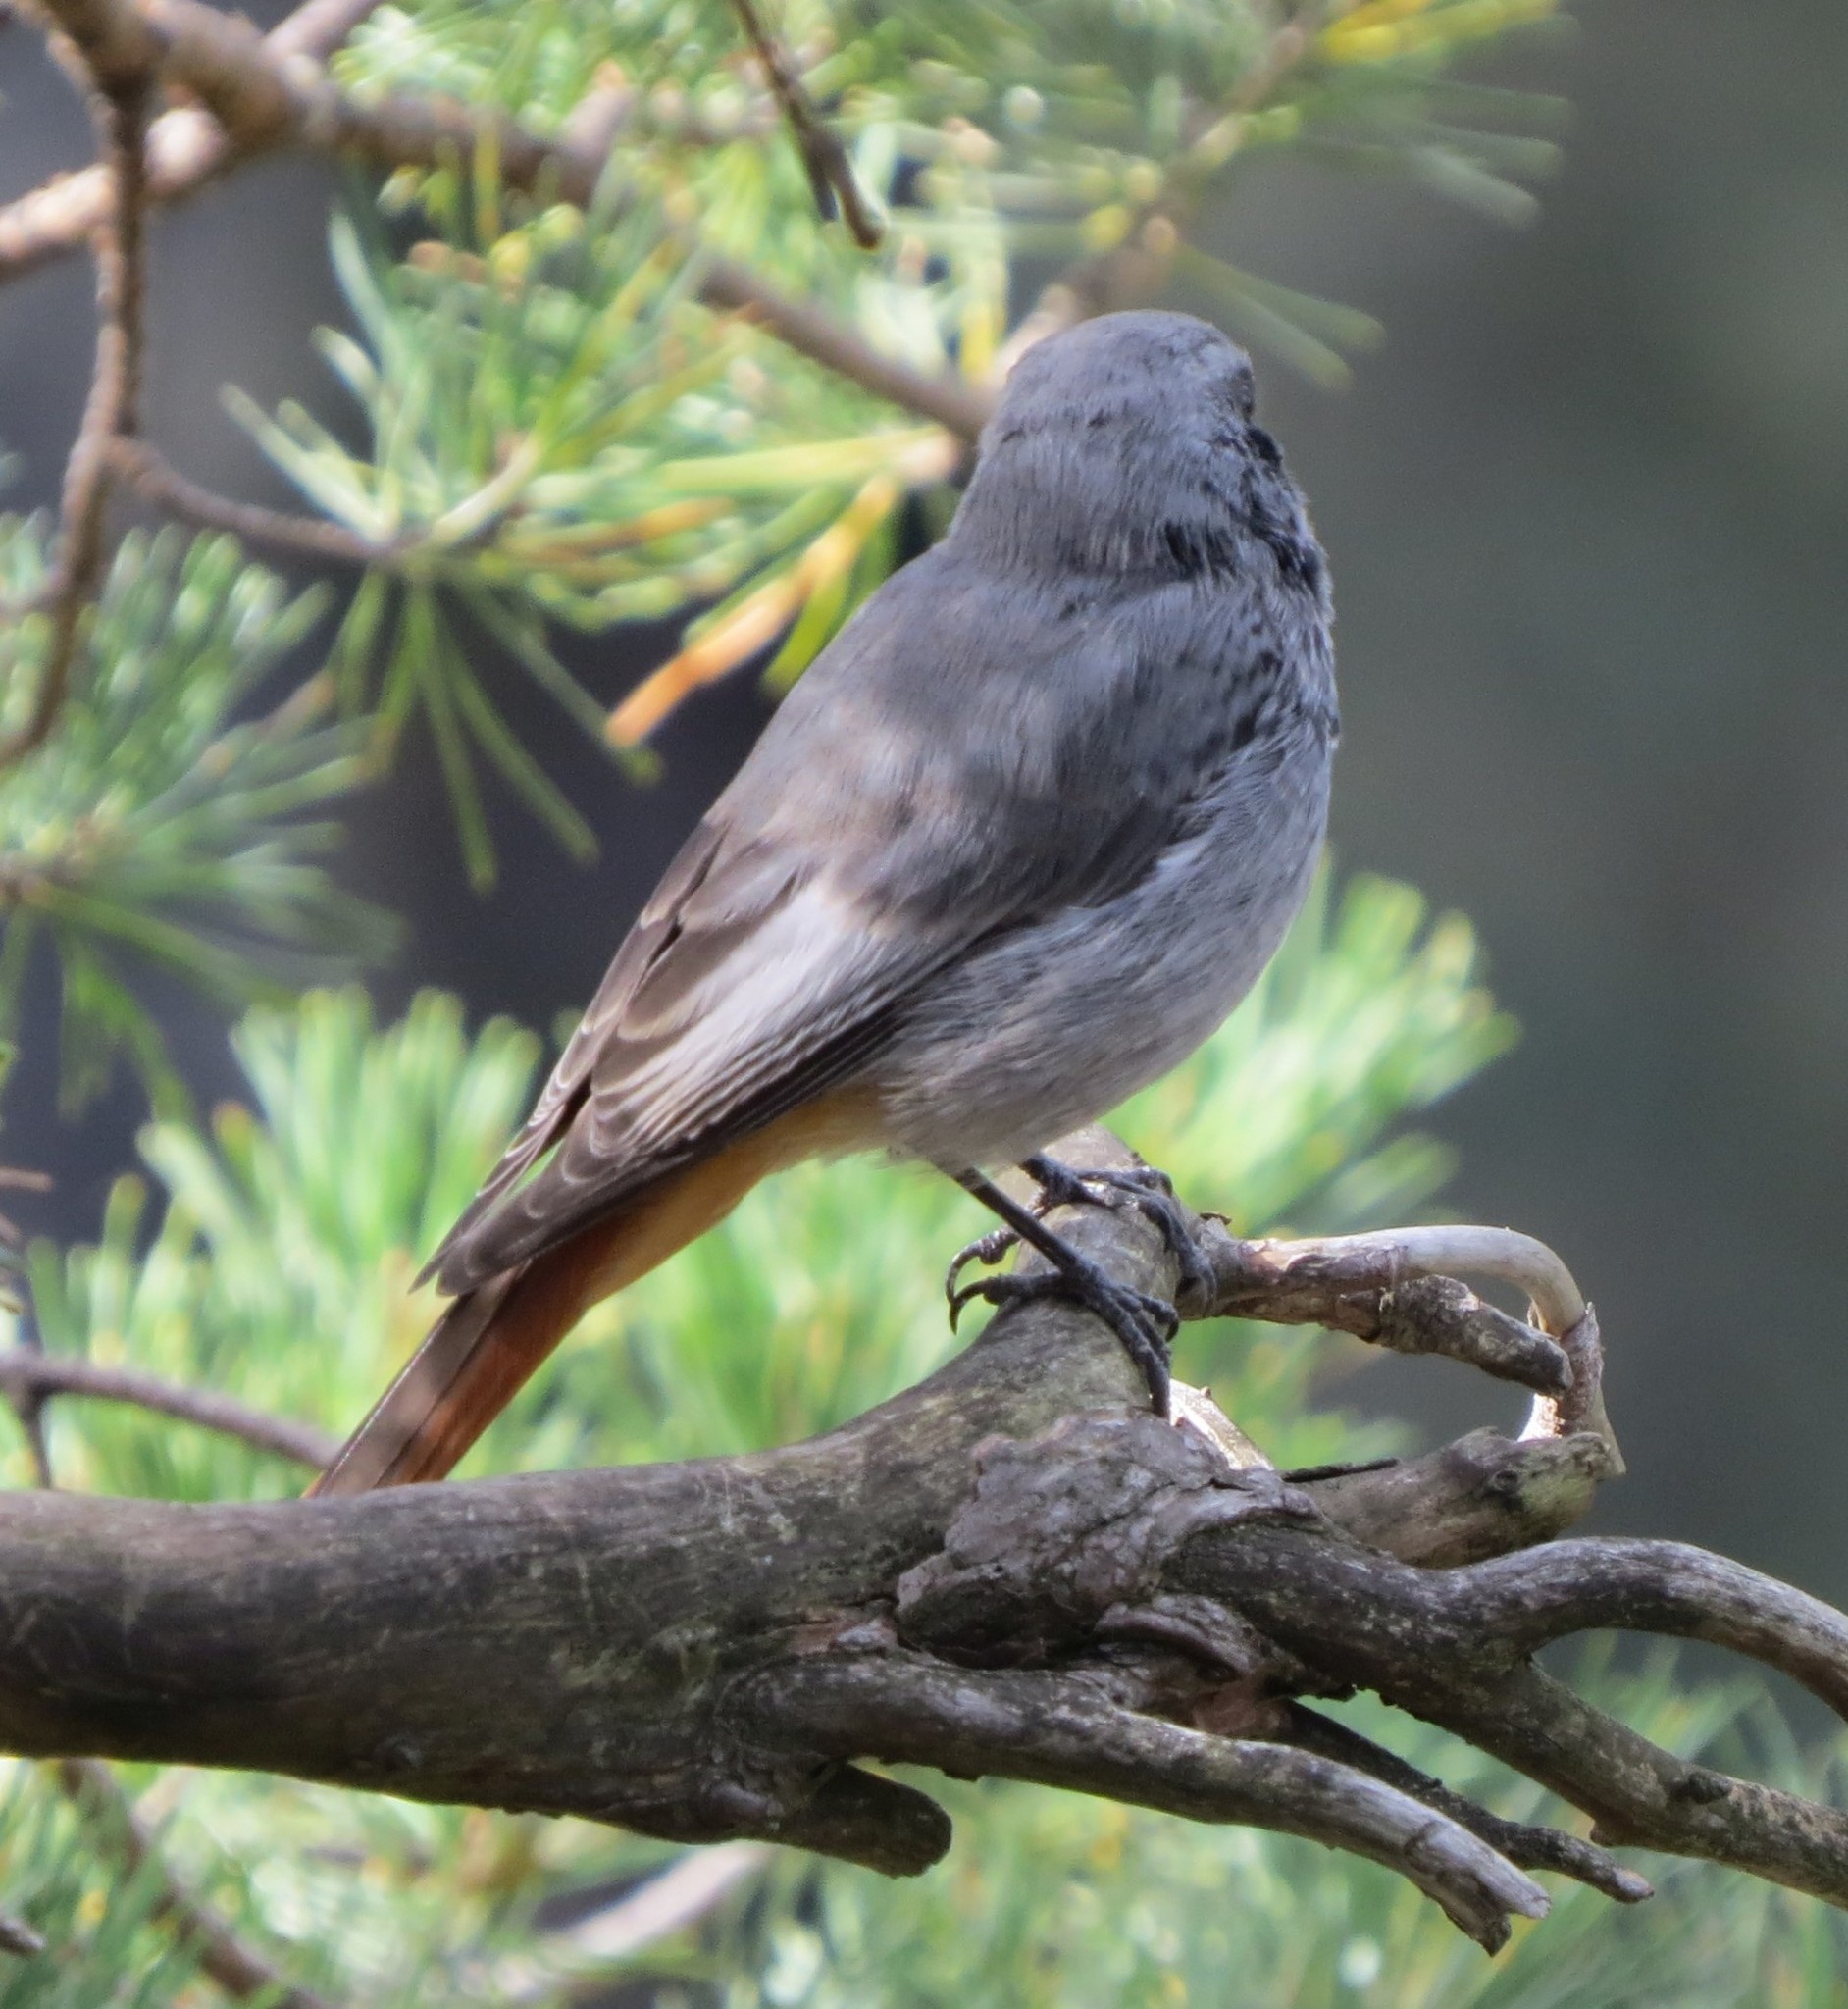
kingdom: Animalia
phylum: Chordata
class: Aves
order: Passeriformes
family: Muscicapidae
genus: Phoenicurus
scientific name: Phoenicurus ochruros
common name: Black redstart
